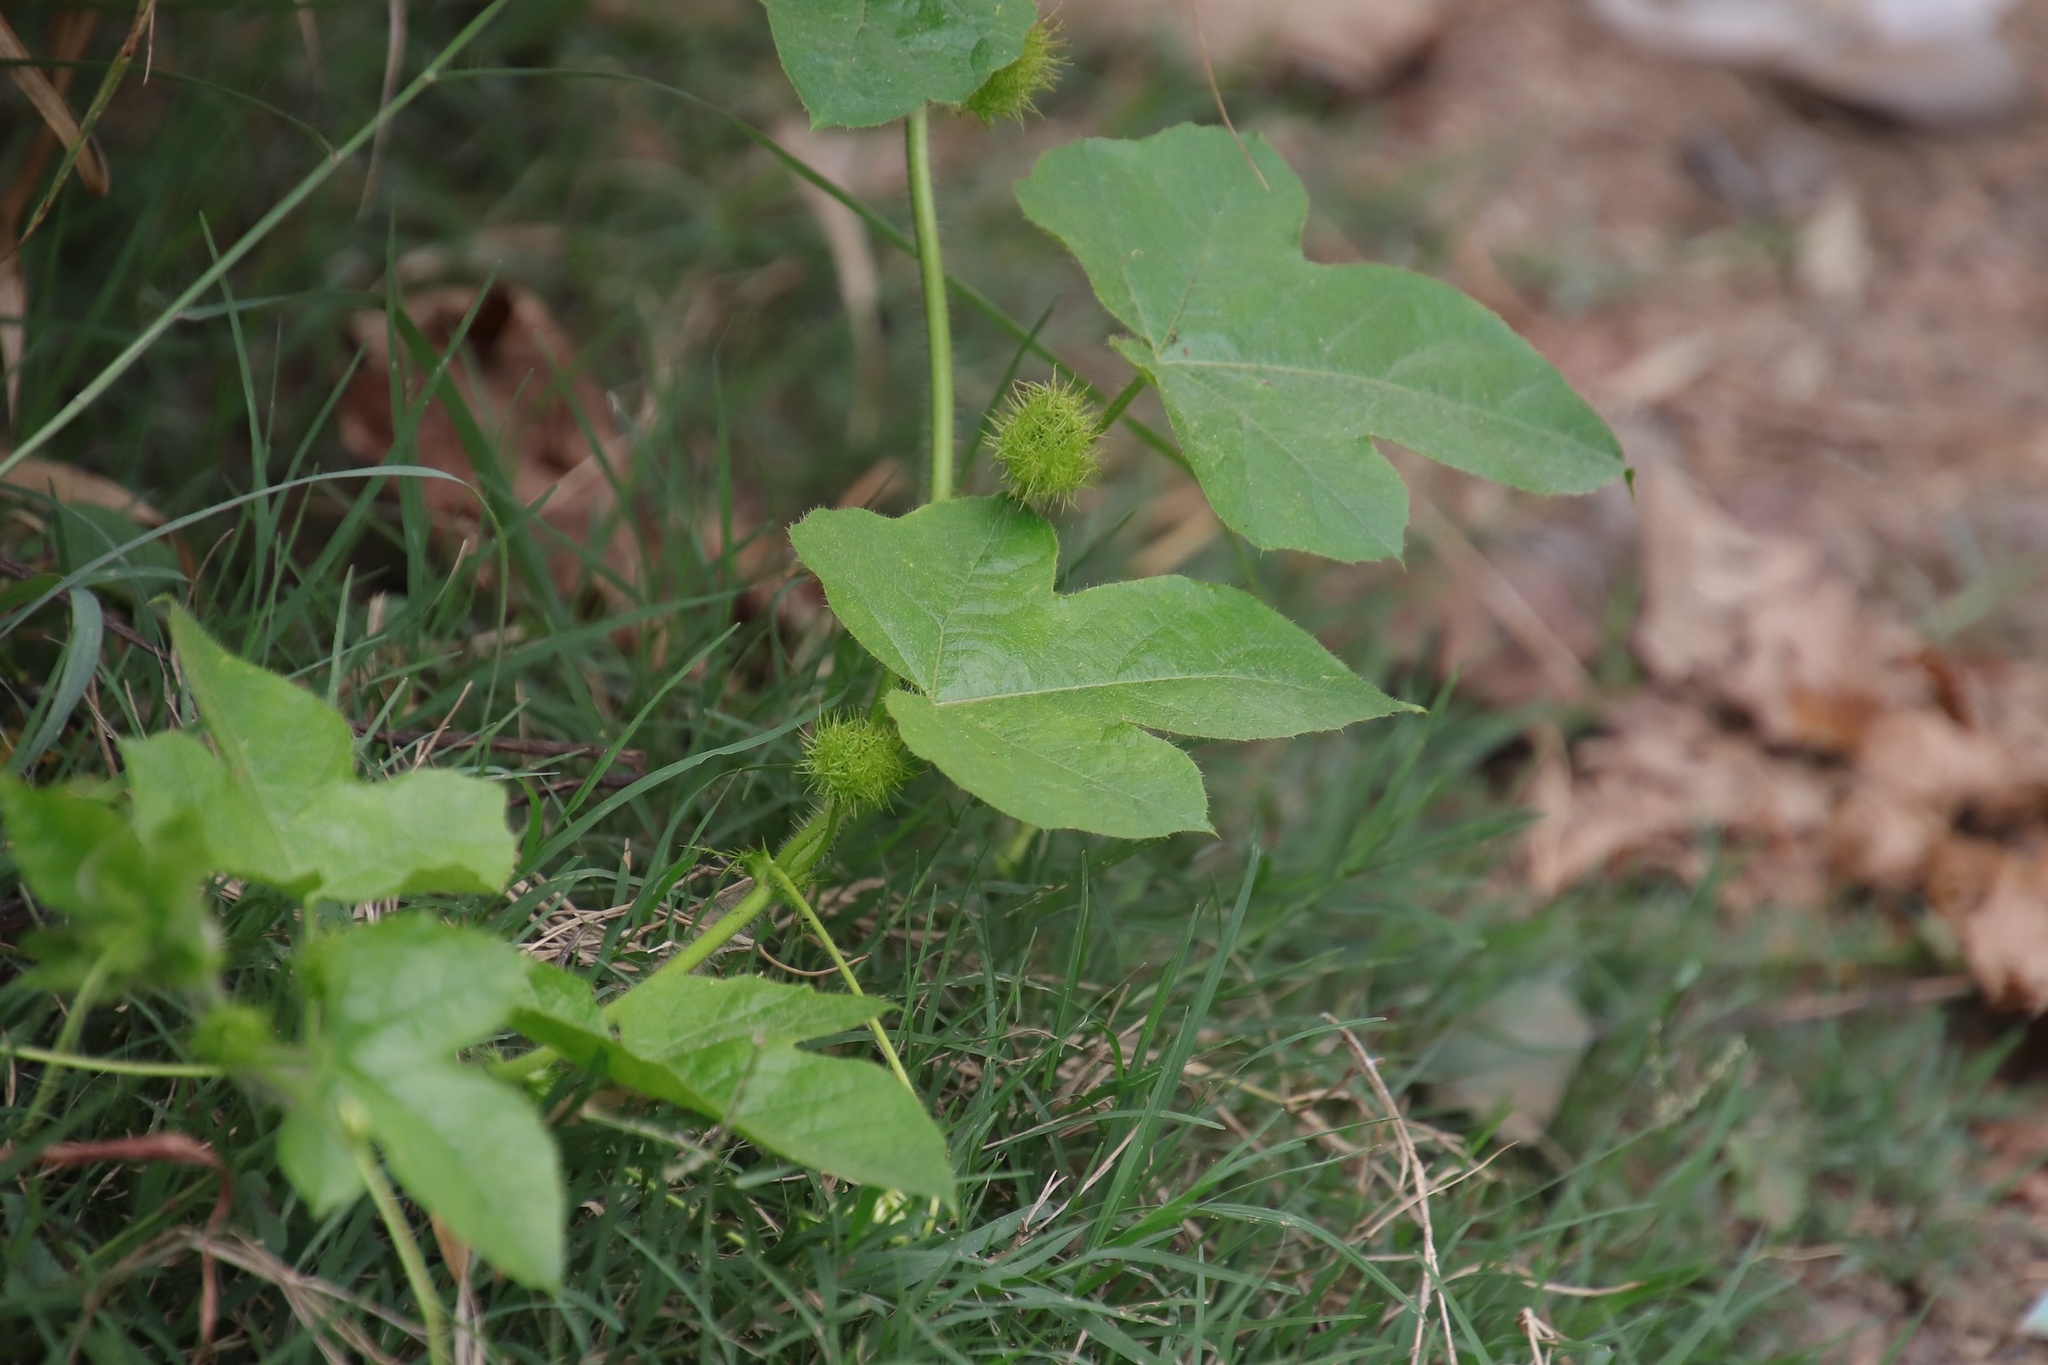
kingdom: Plantae
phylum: Tracheophyta
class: Magnoliopsida
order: Malpighiales
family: Passifloraceae
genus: Passiflora
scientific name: Passiflora foetida
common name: Fetid passionflower
